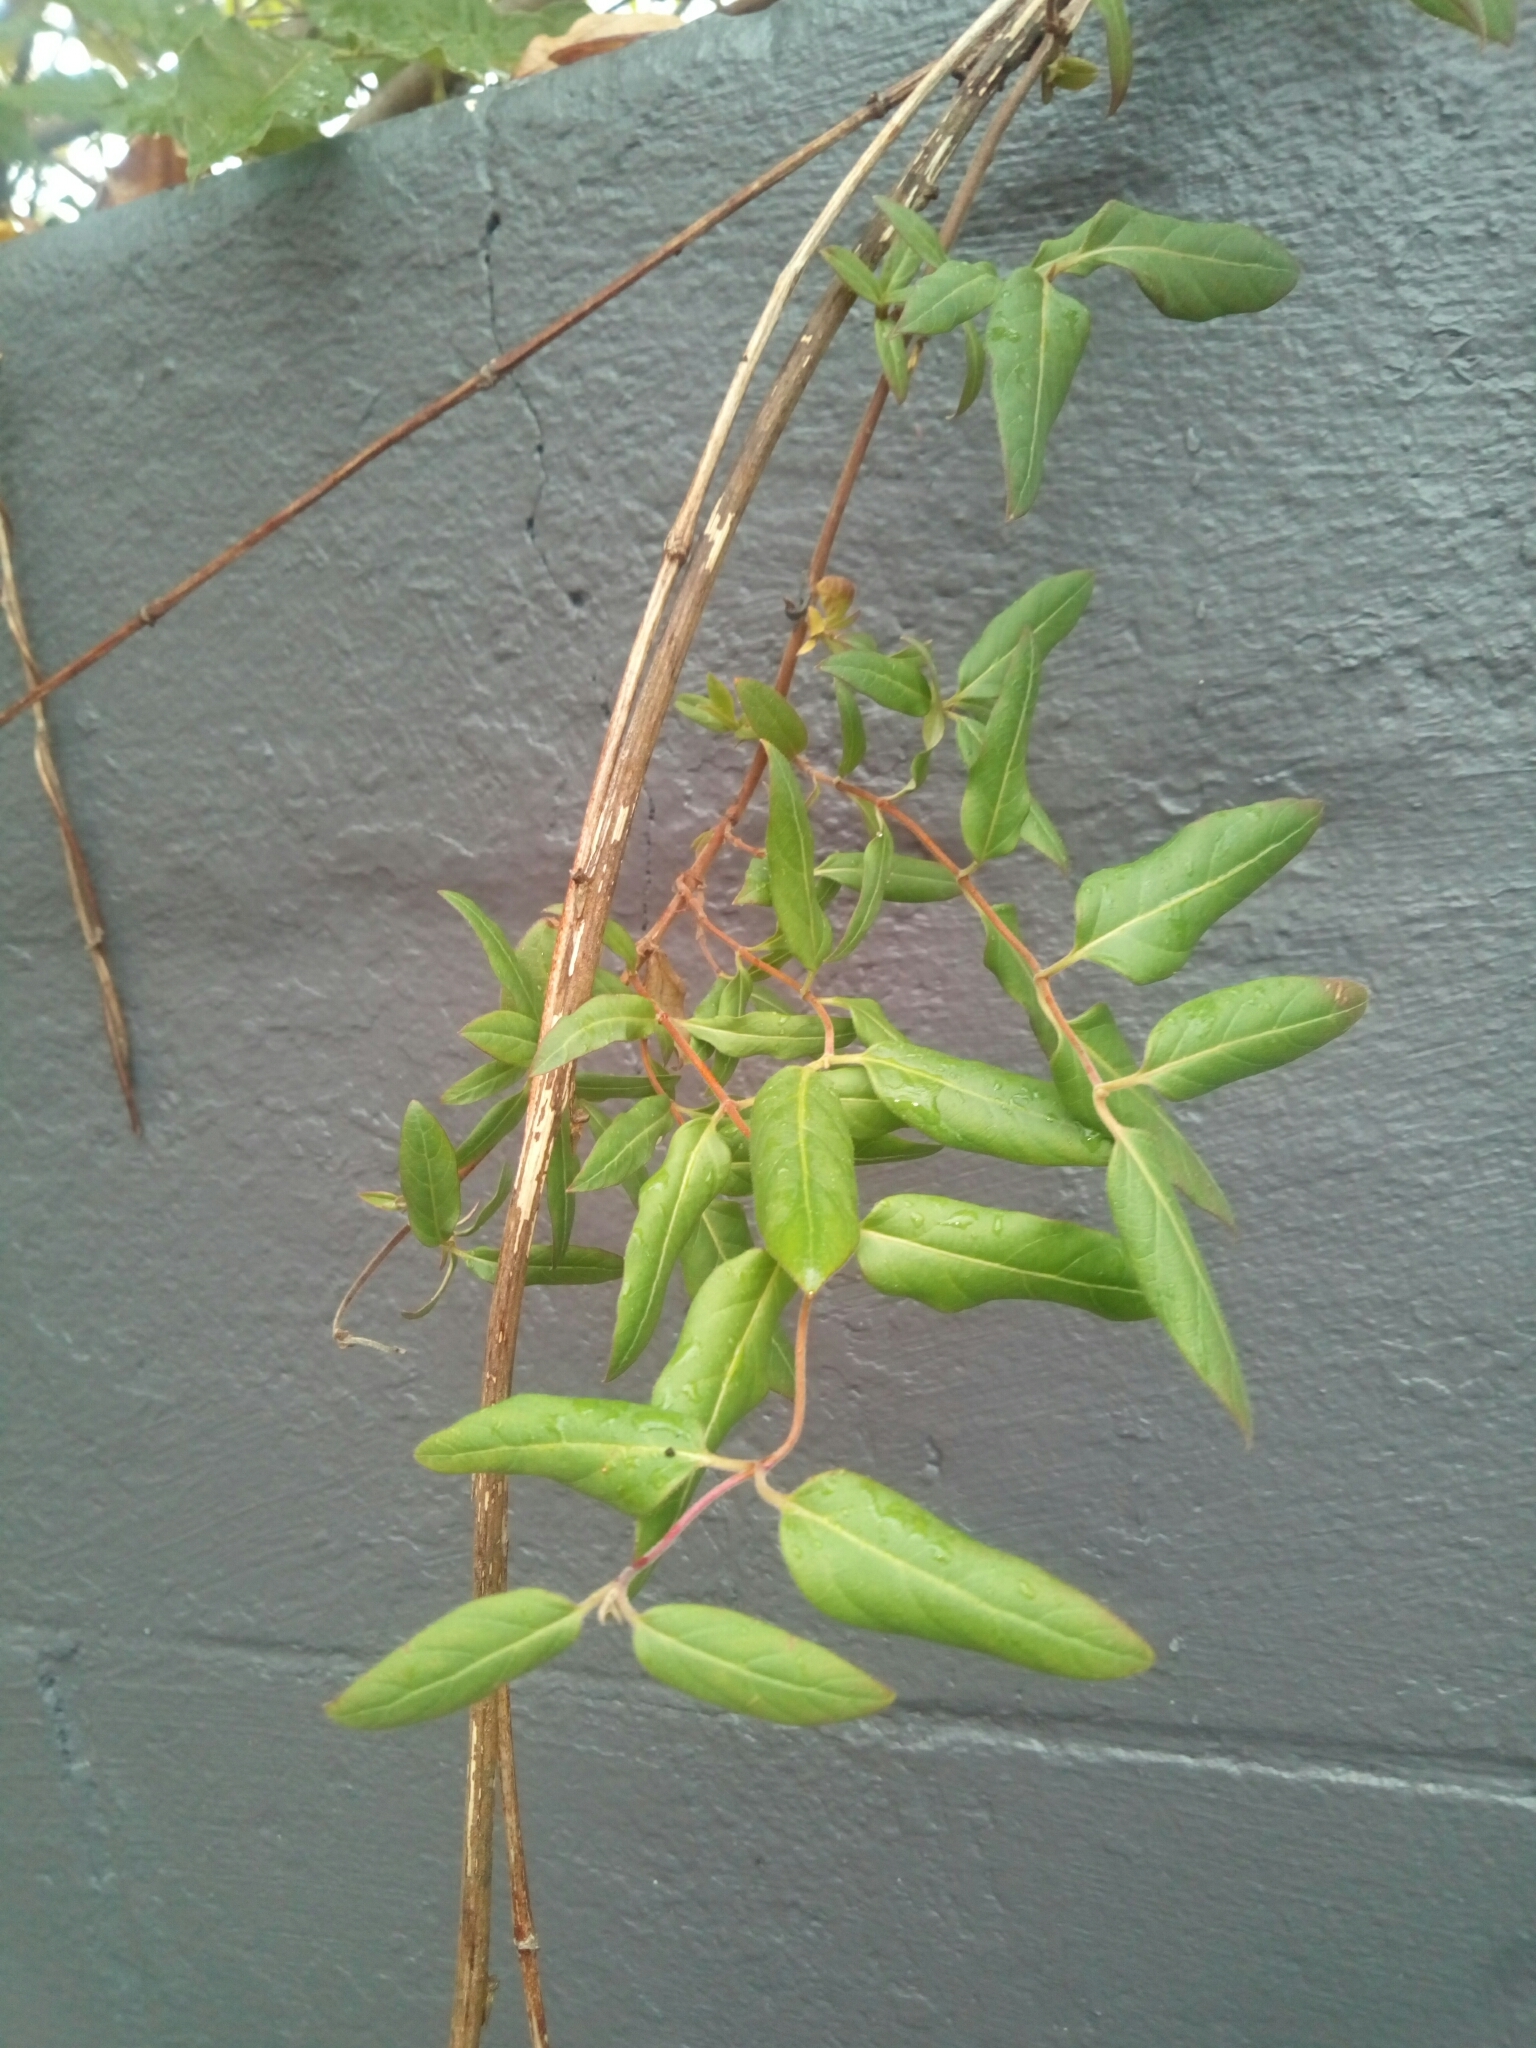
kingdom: Plantae
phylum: Tracheophyta
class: Magnoliopsida
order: Dipsacales
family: Caprifoliaceae
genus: Lonicera
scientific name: Lonicera japonica
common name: Japanese honeysuckle
